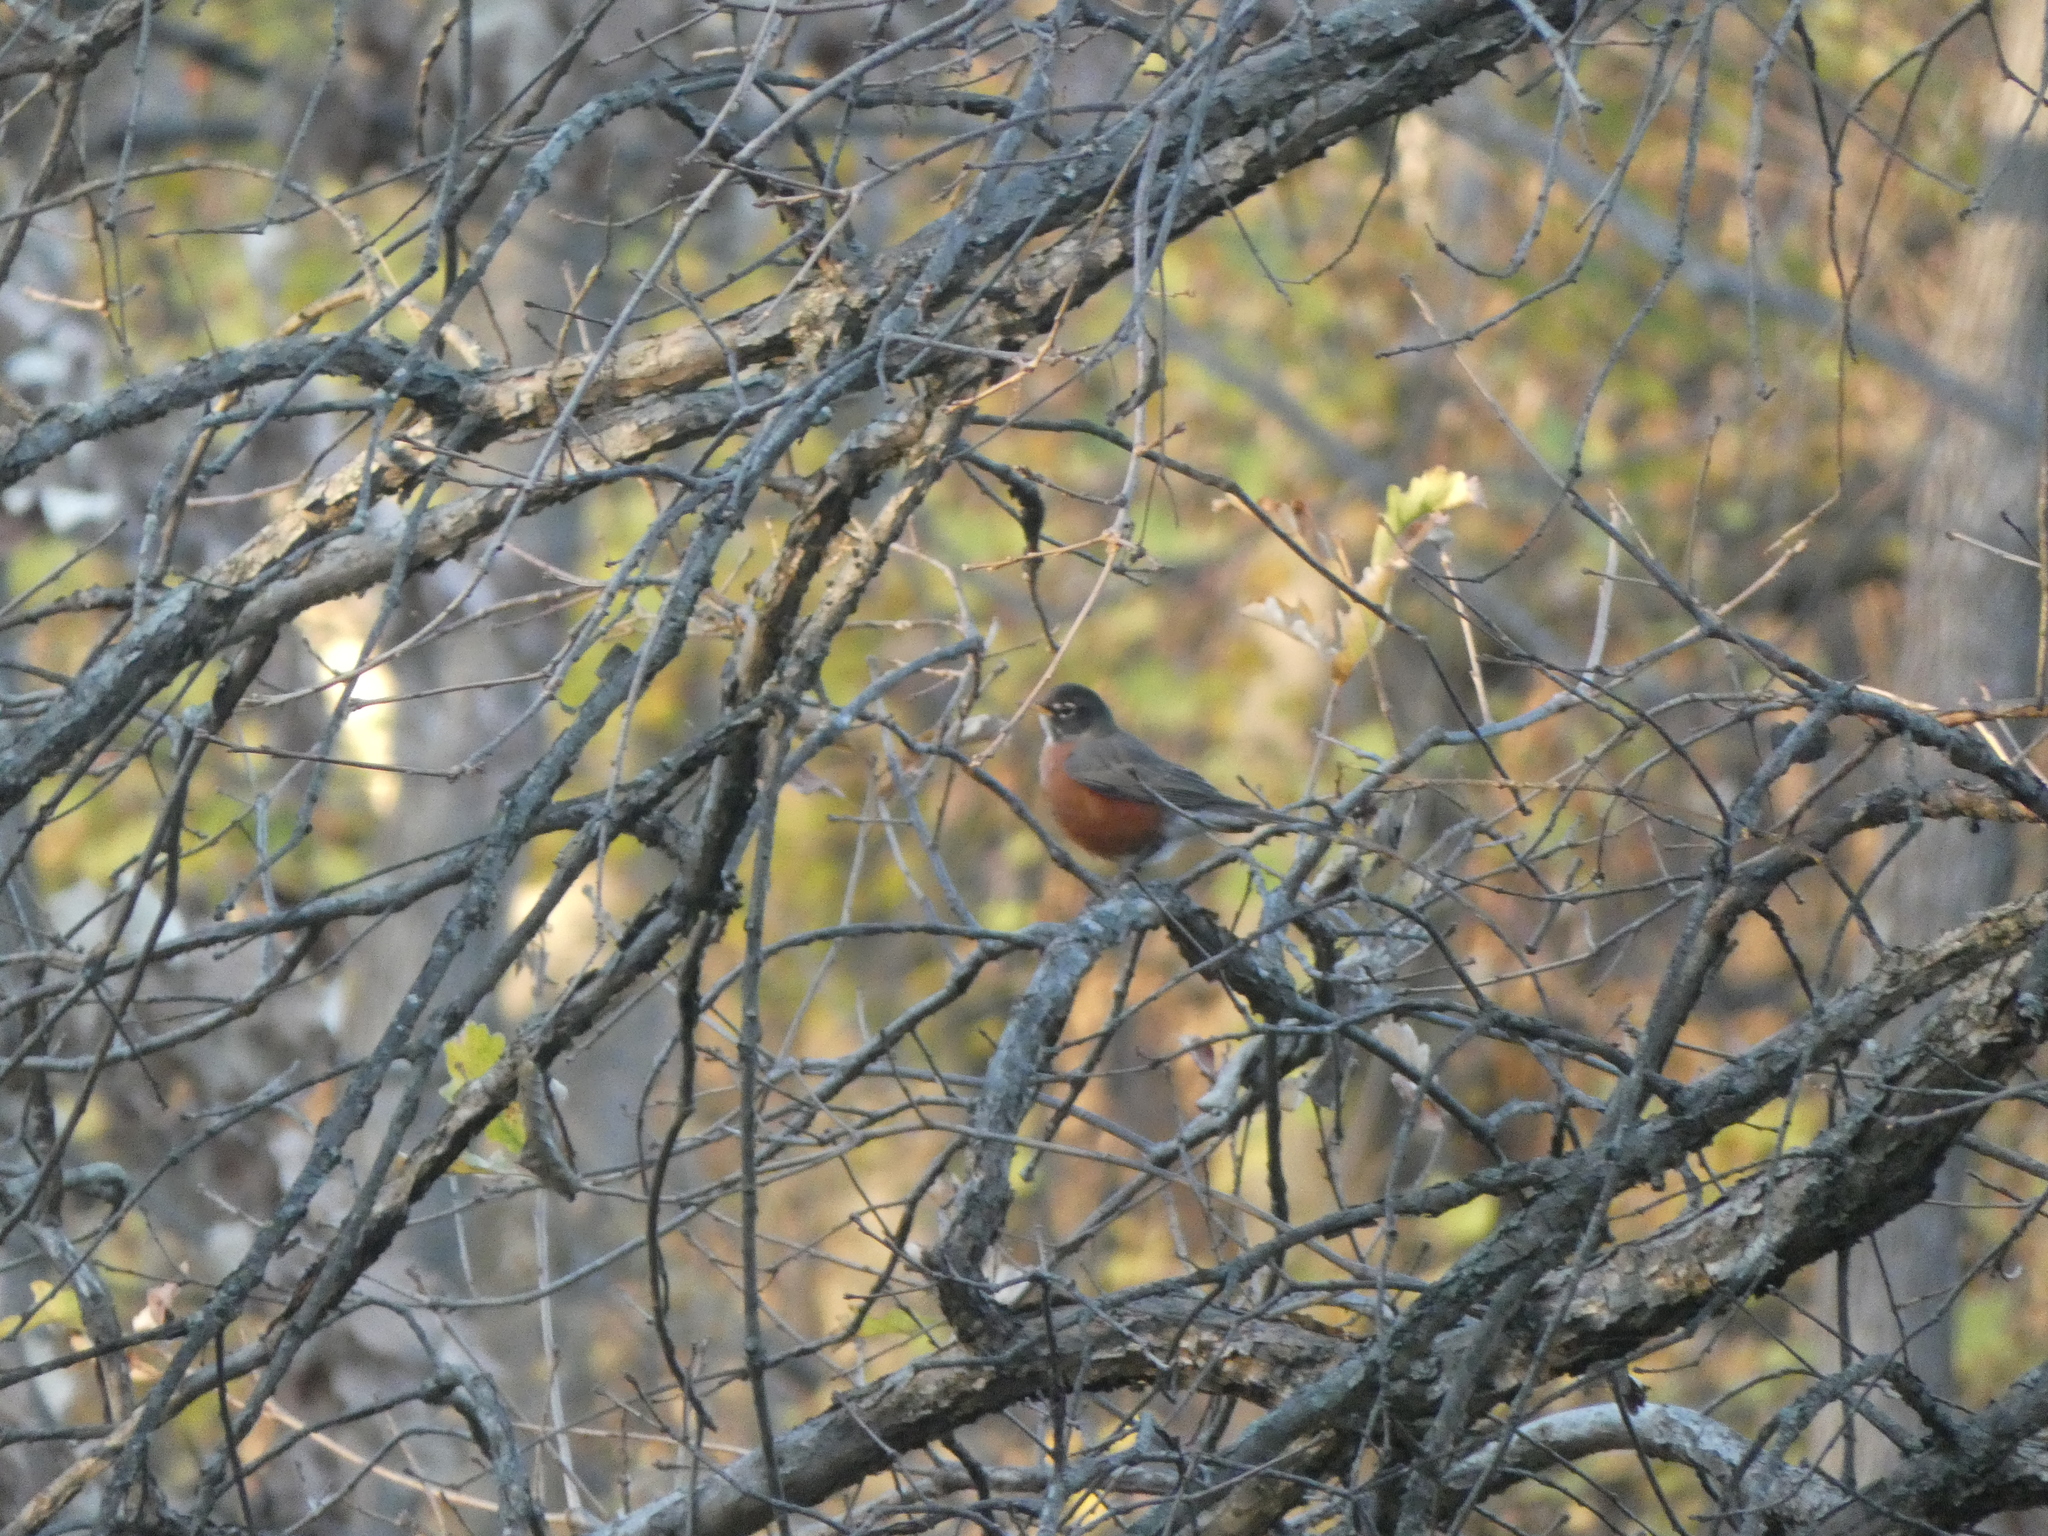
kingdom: Animalia
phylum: Chordata
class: Aves
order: Passeriformes
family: Turdidae
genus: Turdus
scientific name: Turdus migratorius
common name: American robin
